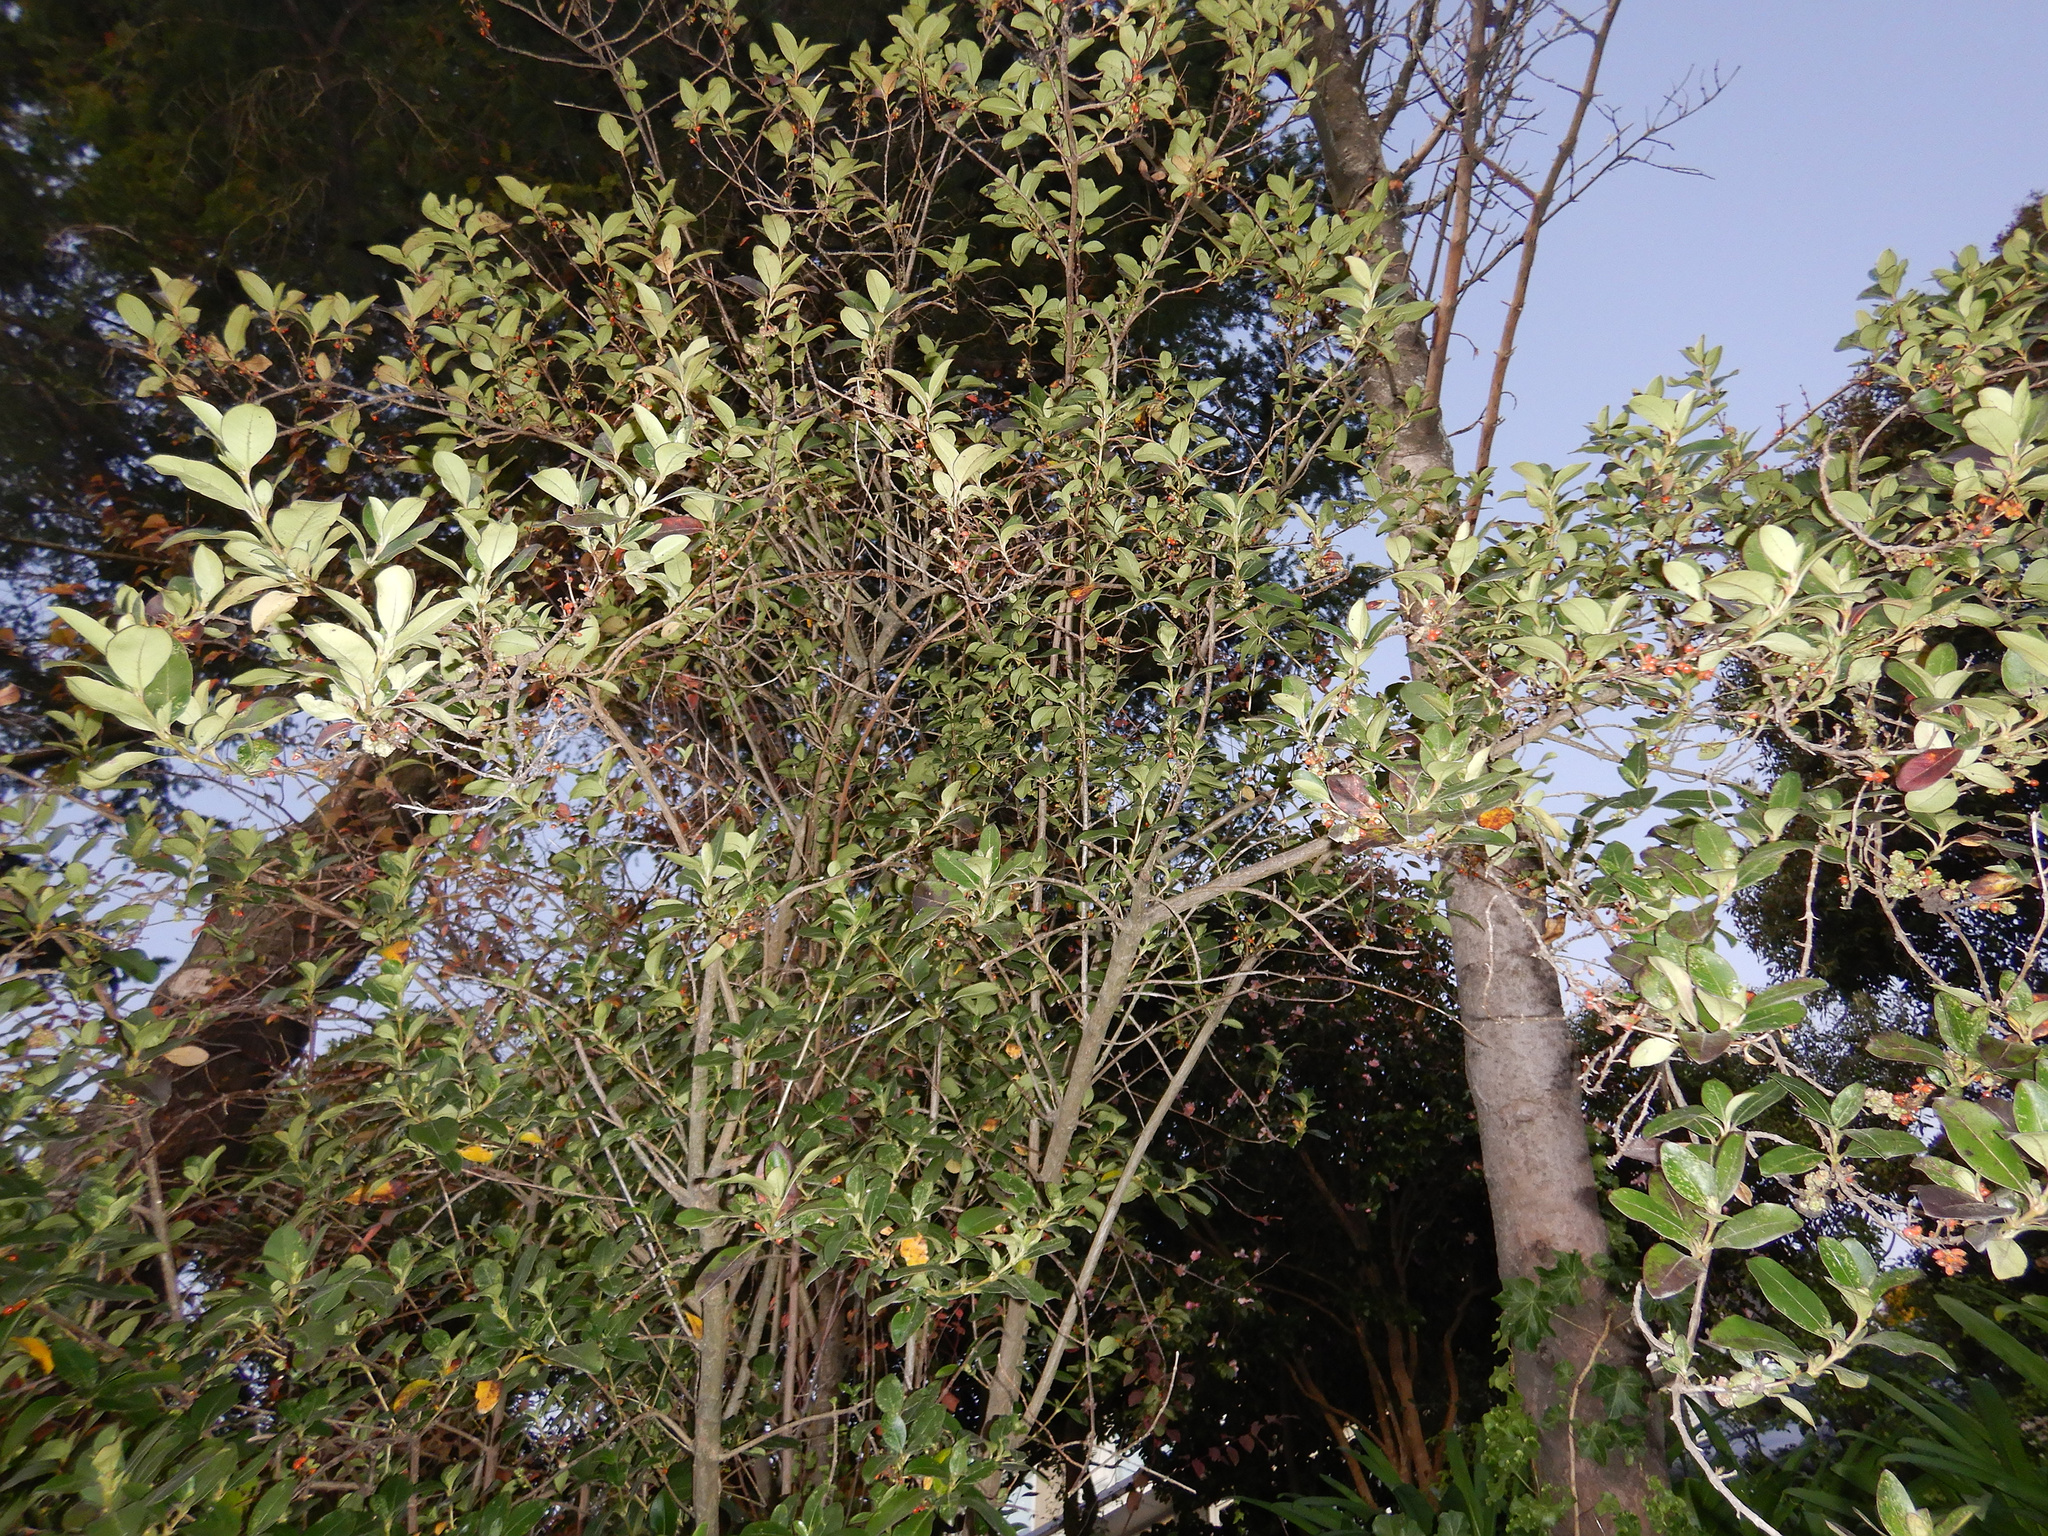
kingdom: Plantae
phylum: Tracheophyta
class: Magnoliopsida
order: Gentianales
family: Rubiaceae
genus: Coprosma
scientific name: Coprosma robusta
